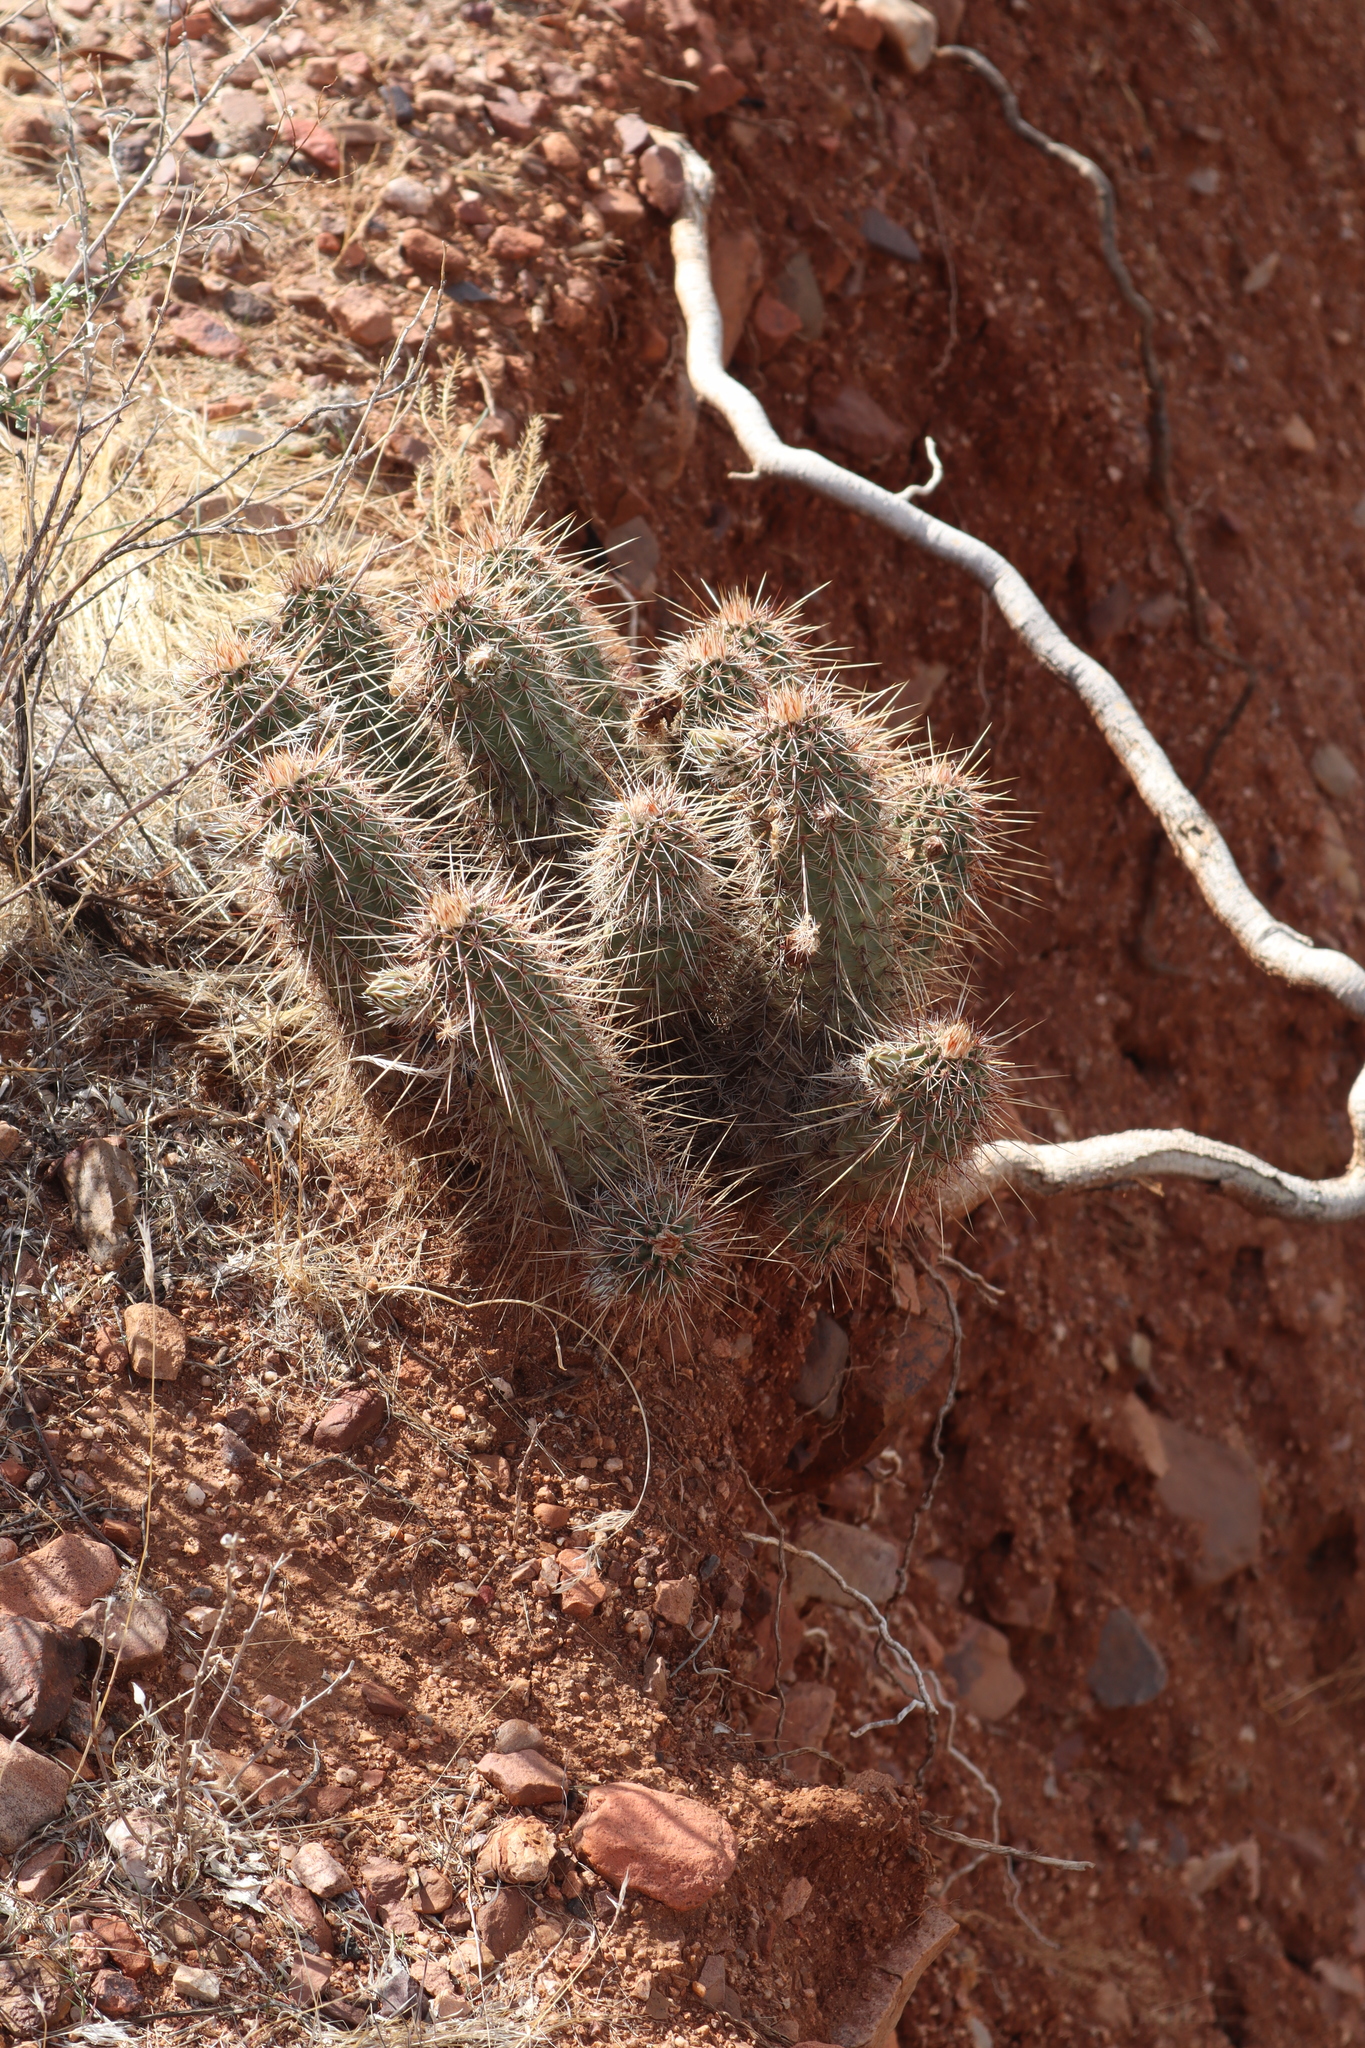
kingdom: Plantae
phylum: Tracheophyta
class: Magnoliopsida
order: Caryophyllales
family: Cactaceae
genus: Echinocereus
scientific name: Echinocereus fasciculatus
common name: Bundle hedgehog
